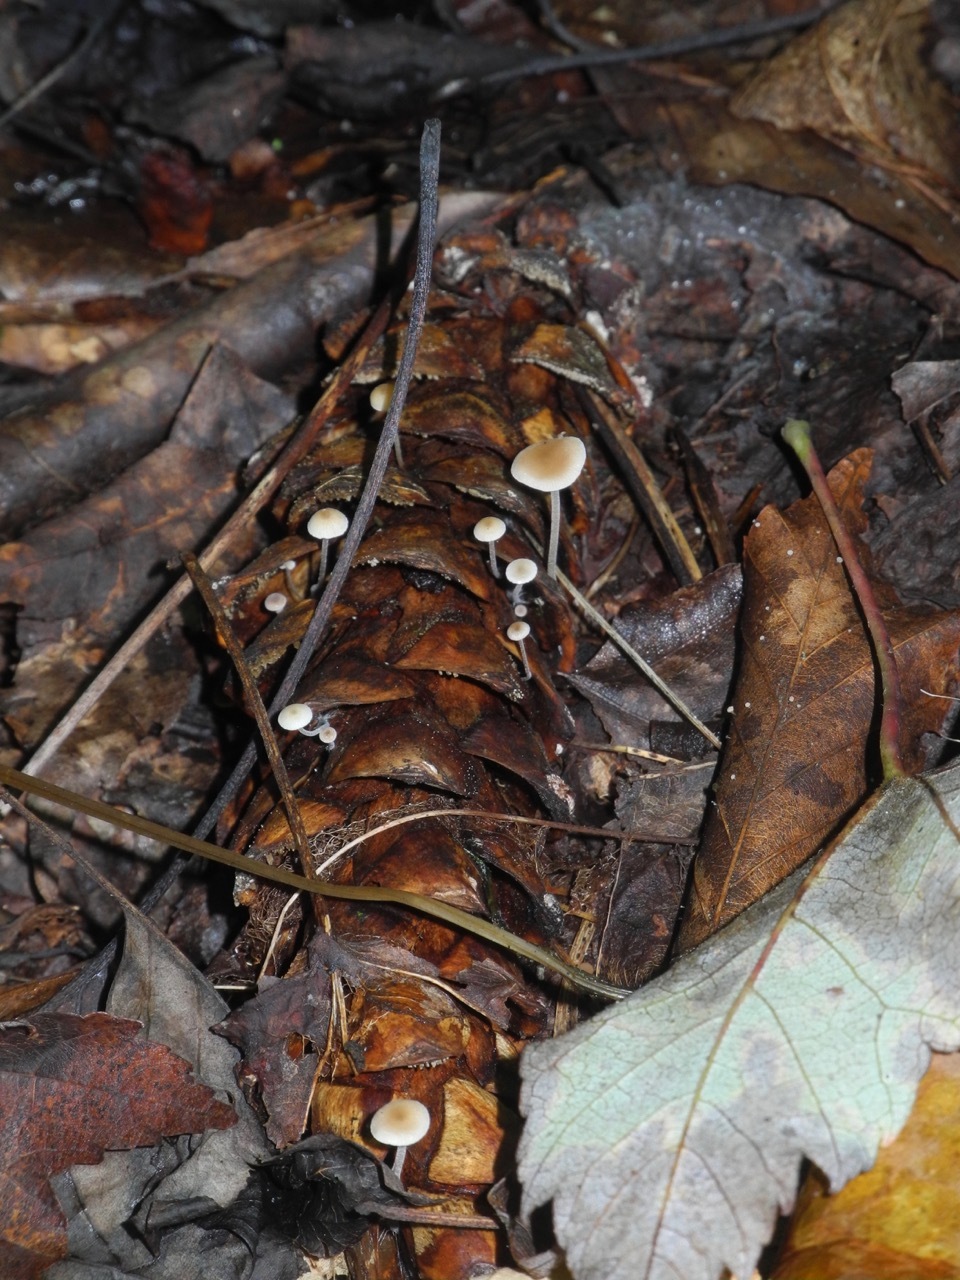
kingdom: Fungi
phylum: Basidiomycota
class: Agaricomycetes
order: Agaricales
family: Physalacriaceae
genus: Strobilurus
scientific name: Strobilurus trullisatus
